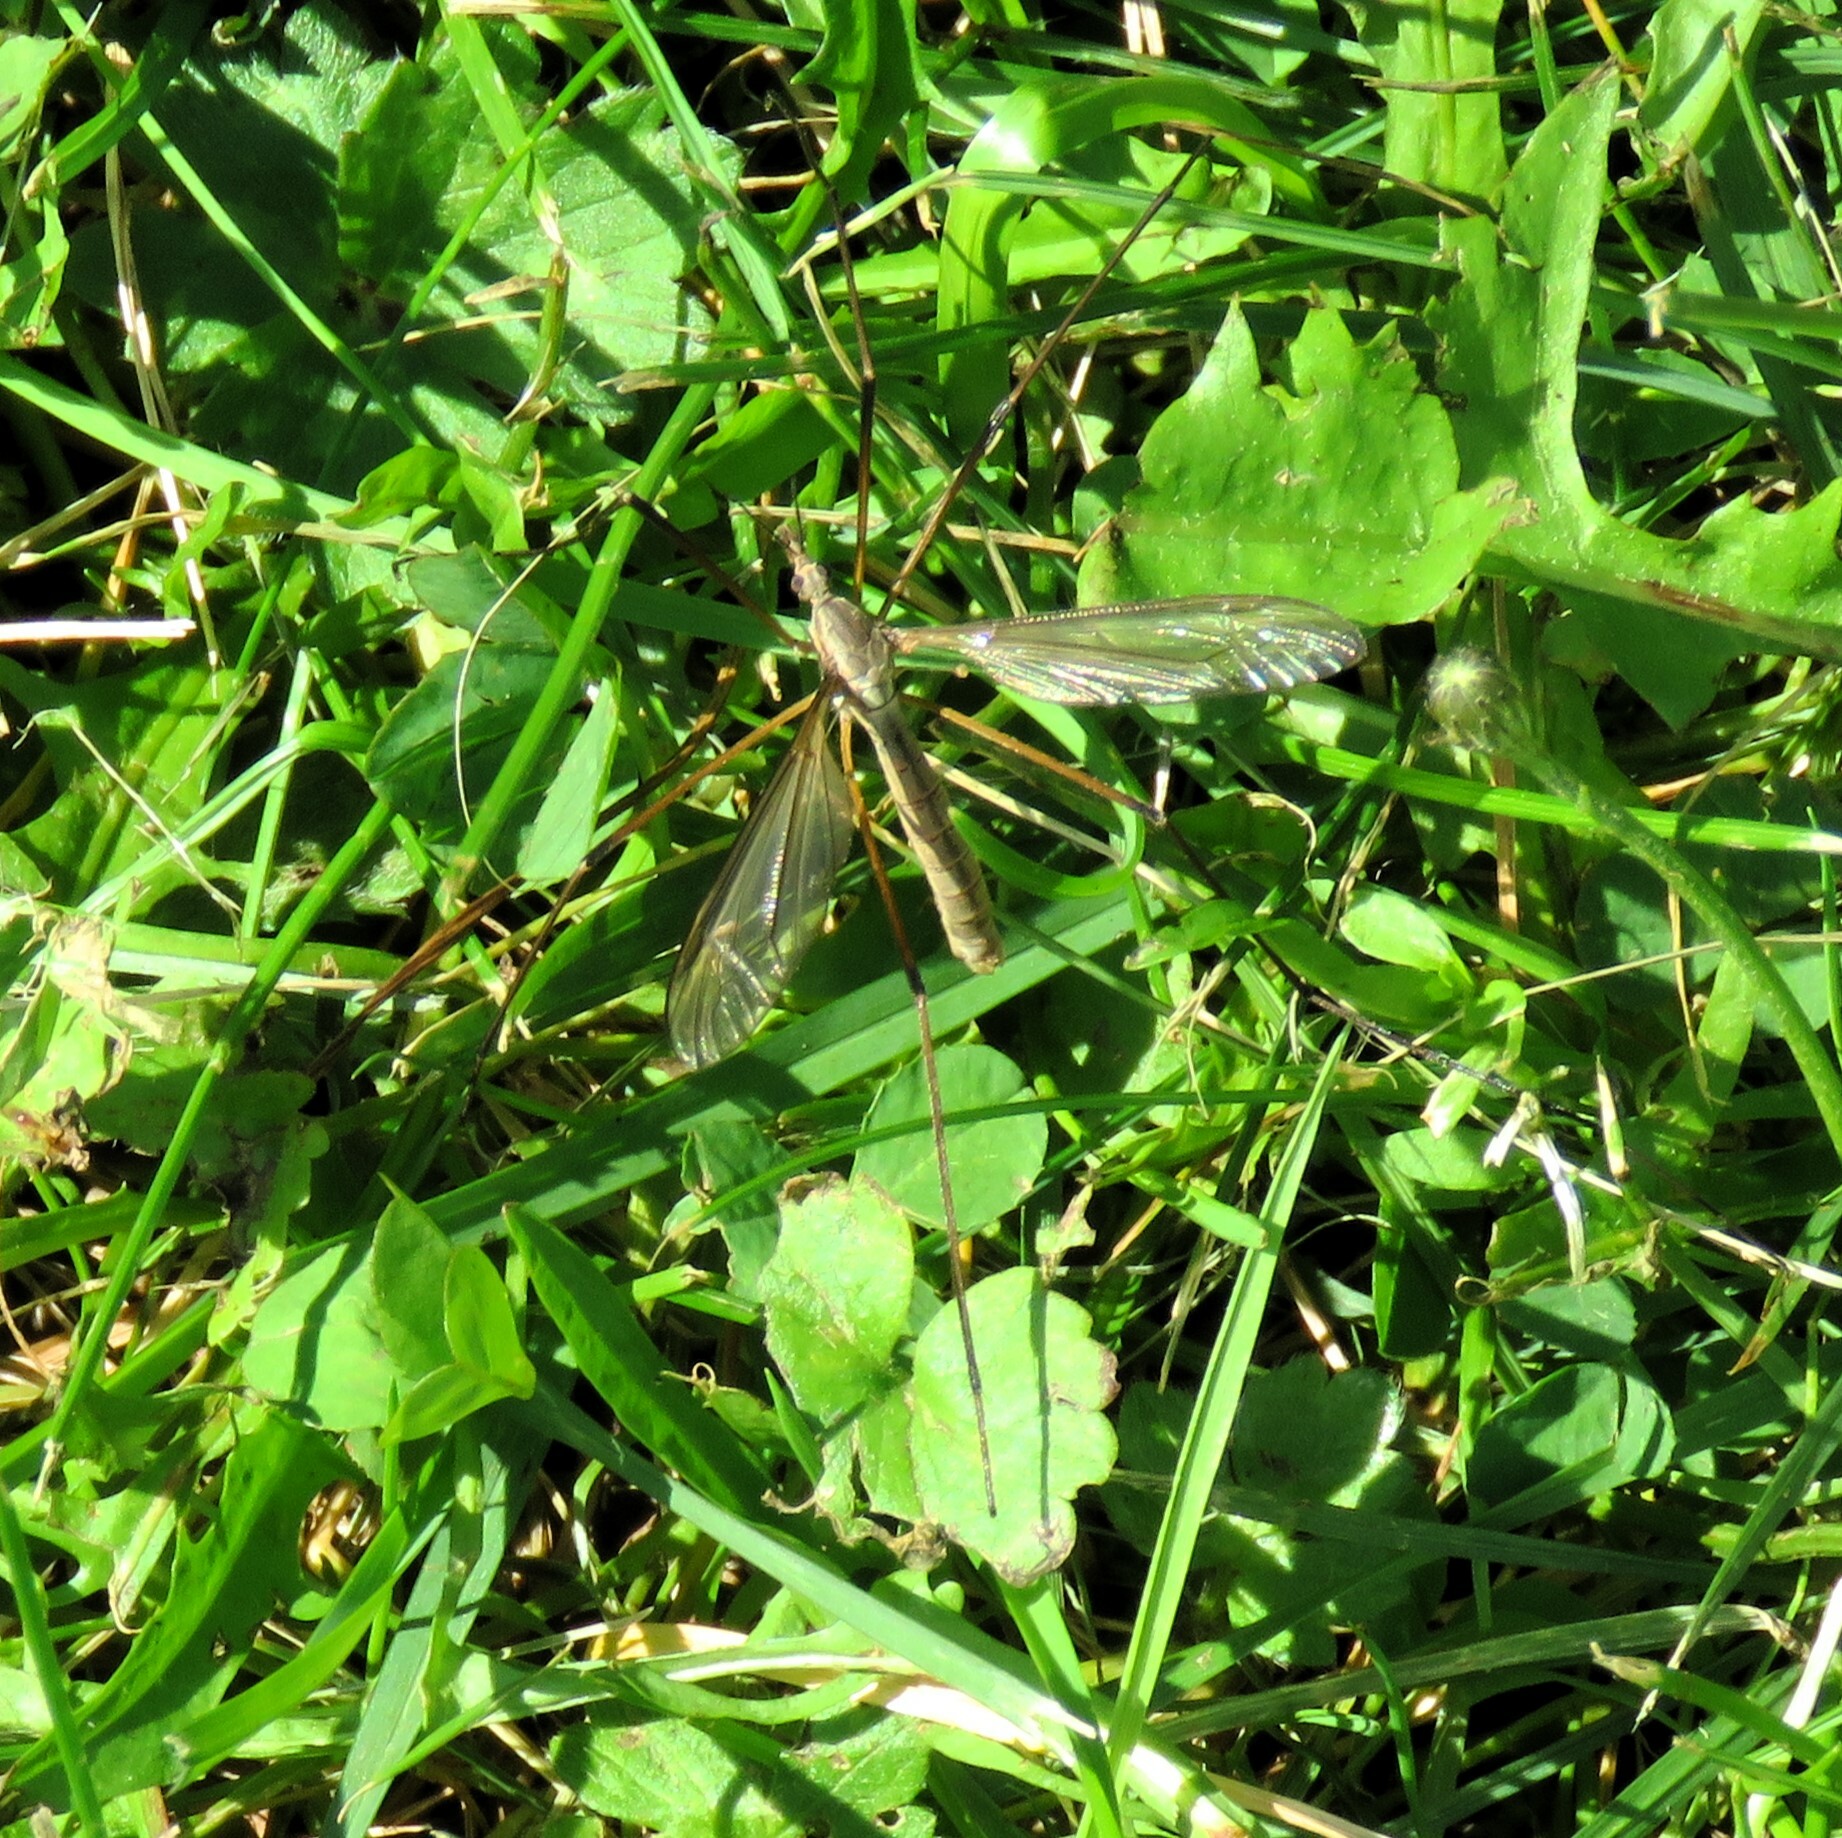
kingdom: Animalia
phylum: Arthropoda
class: Insecta
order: Diptera
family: Tipulidae
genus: Tipula
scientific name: Tipula paludosa
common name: European cranefly
